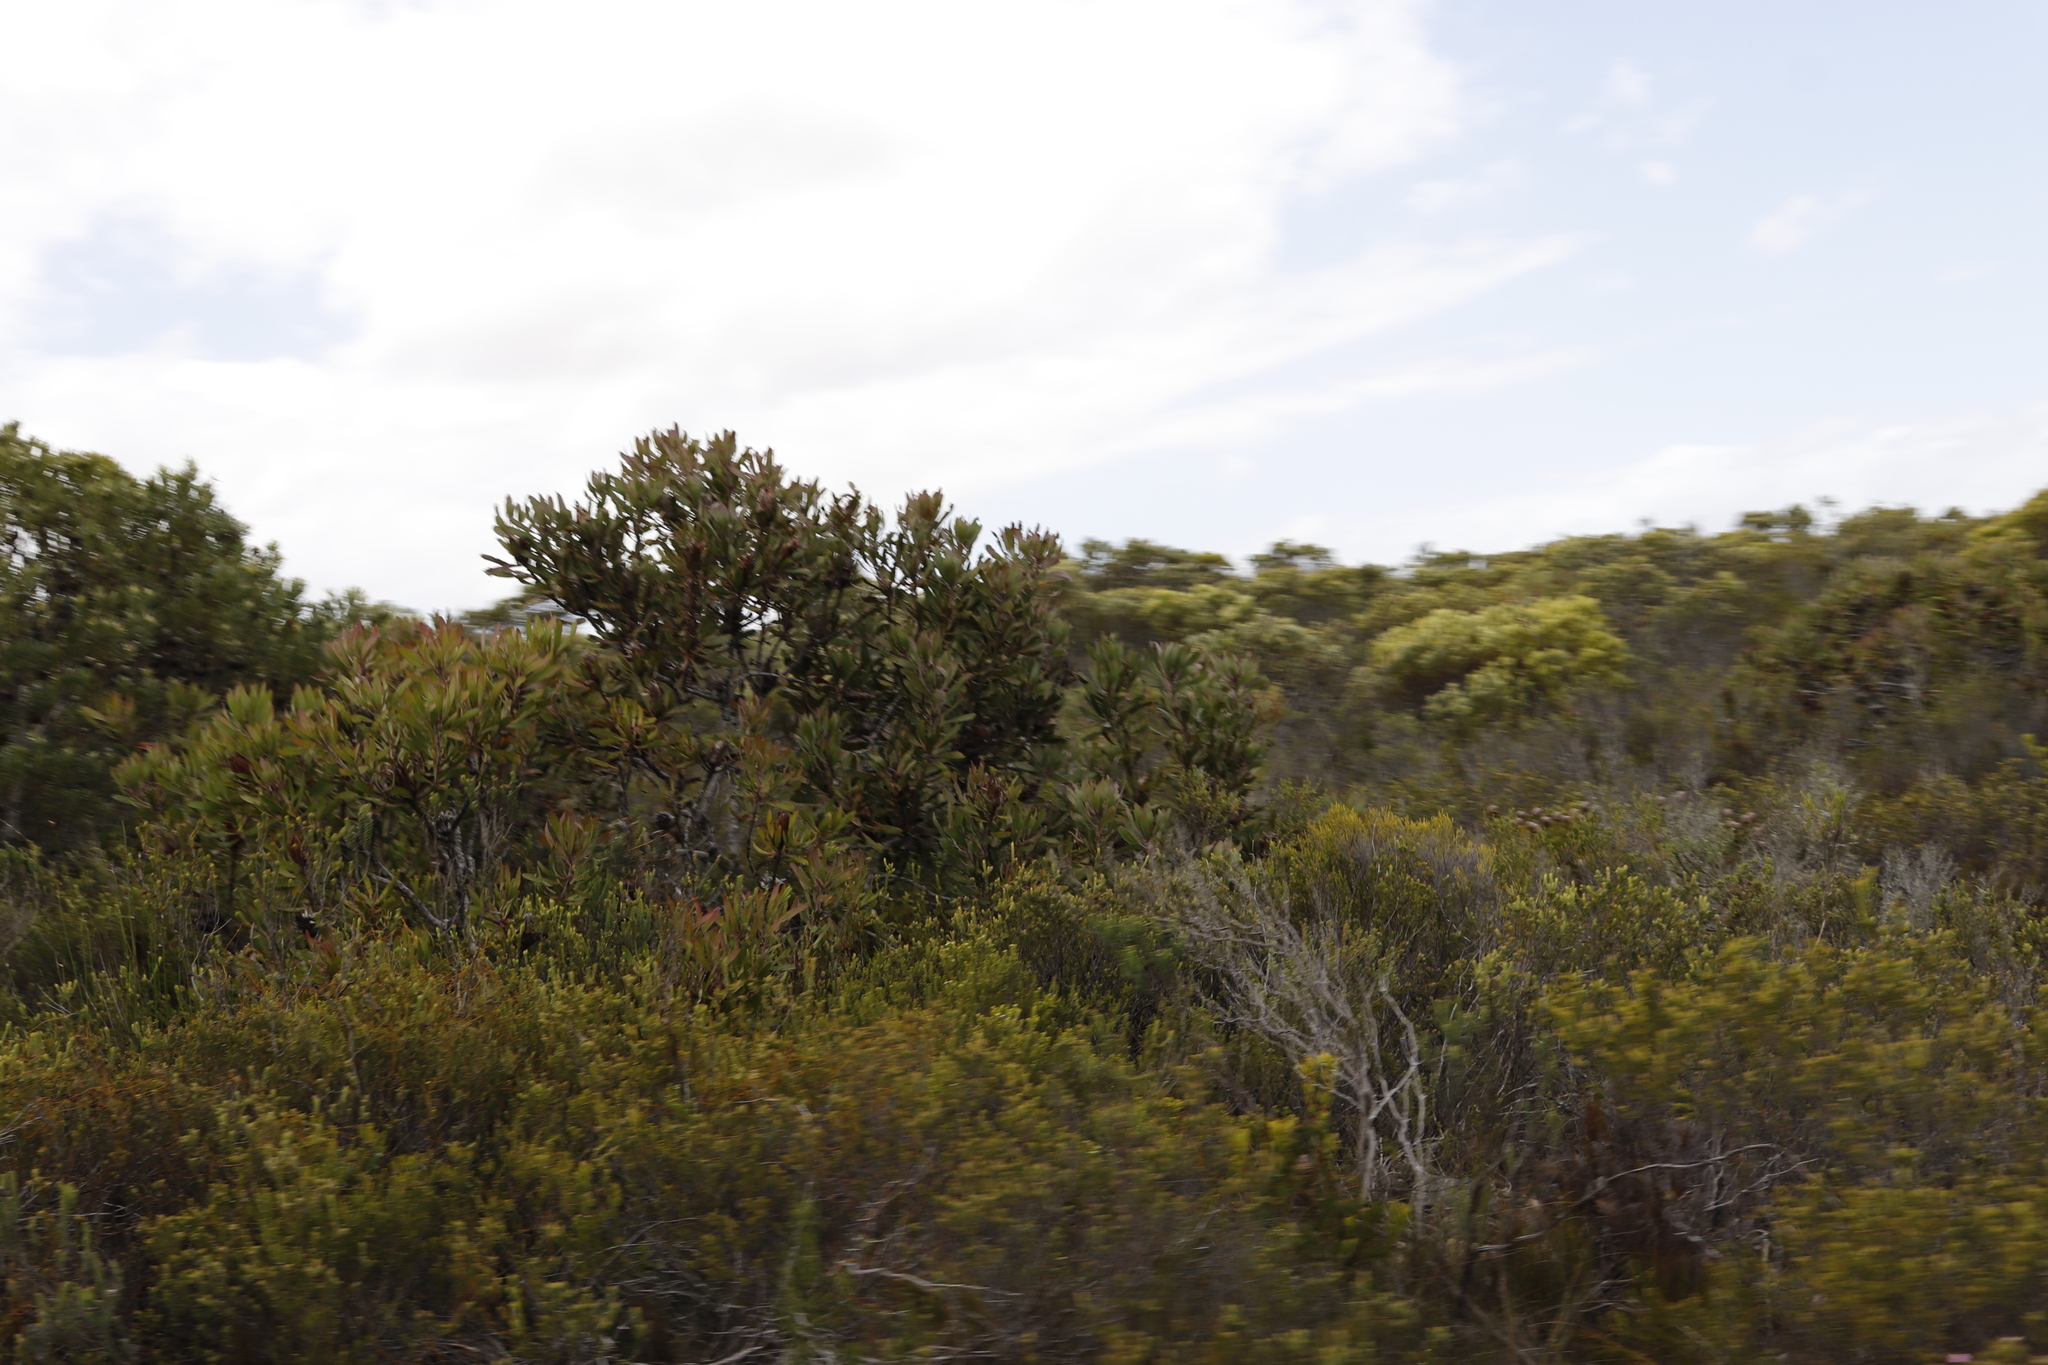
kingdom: Plantae
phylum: Tracheophyta
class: Magnoliopsida
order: Proteales
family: Proteaceae
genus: Protea
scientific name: Protea obtusifolia
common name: Bredasdorp sugarbush
